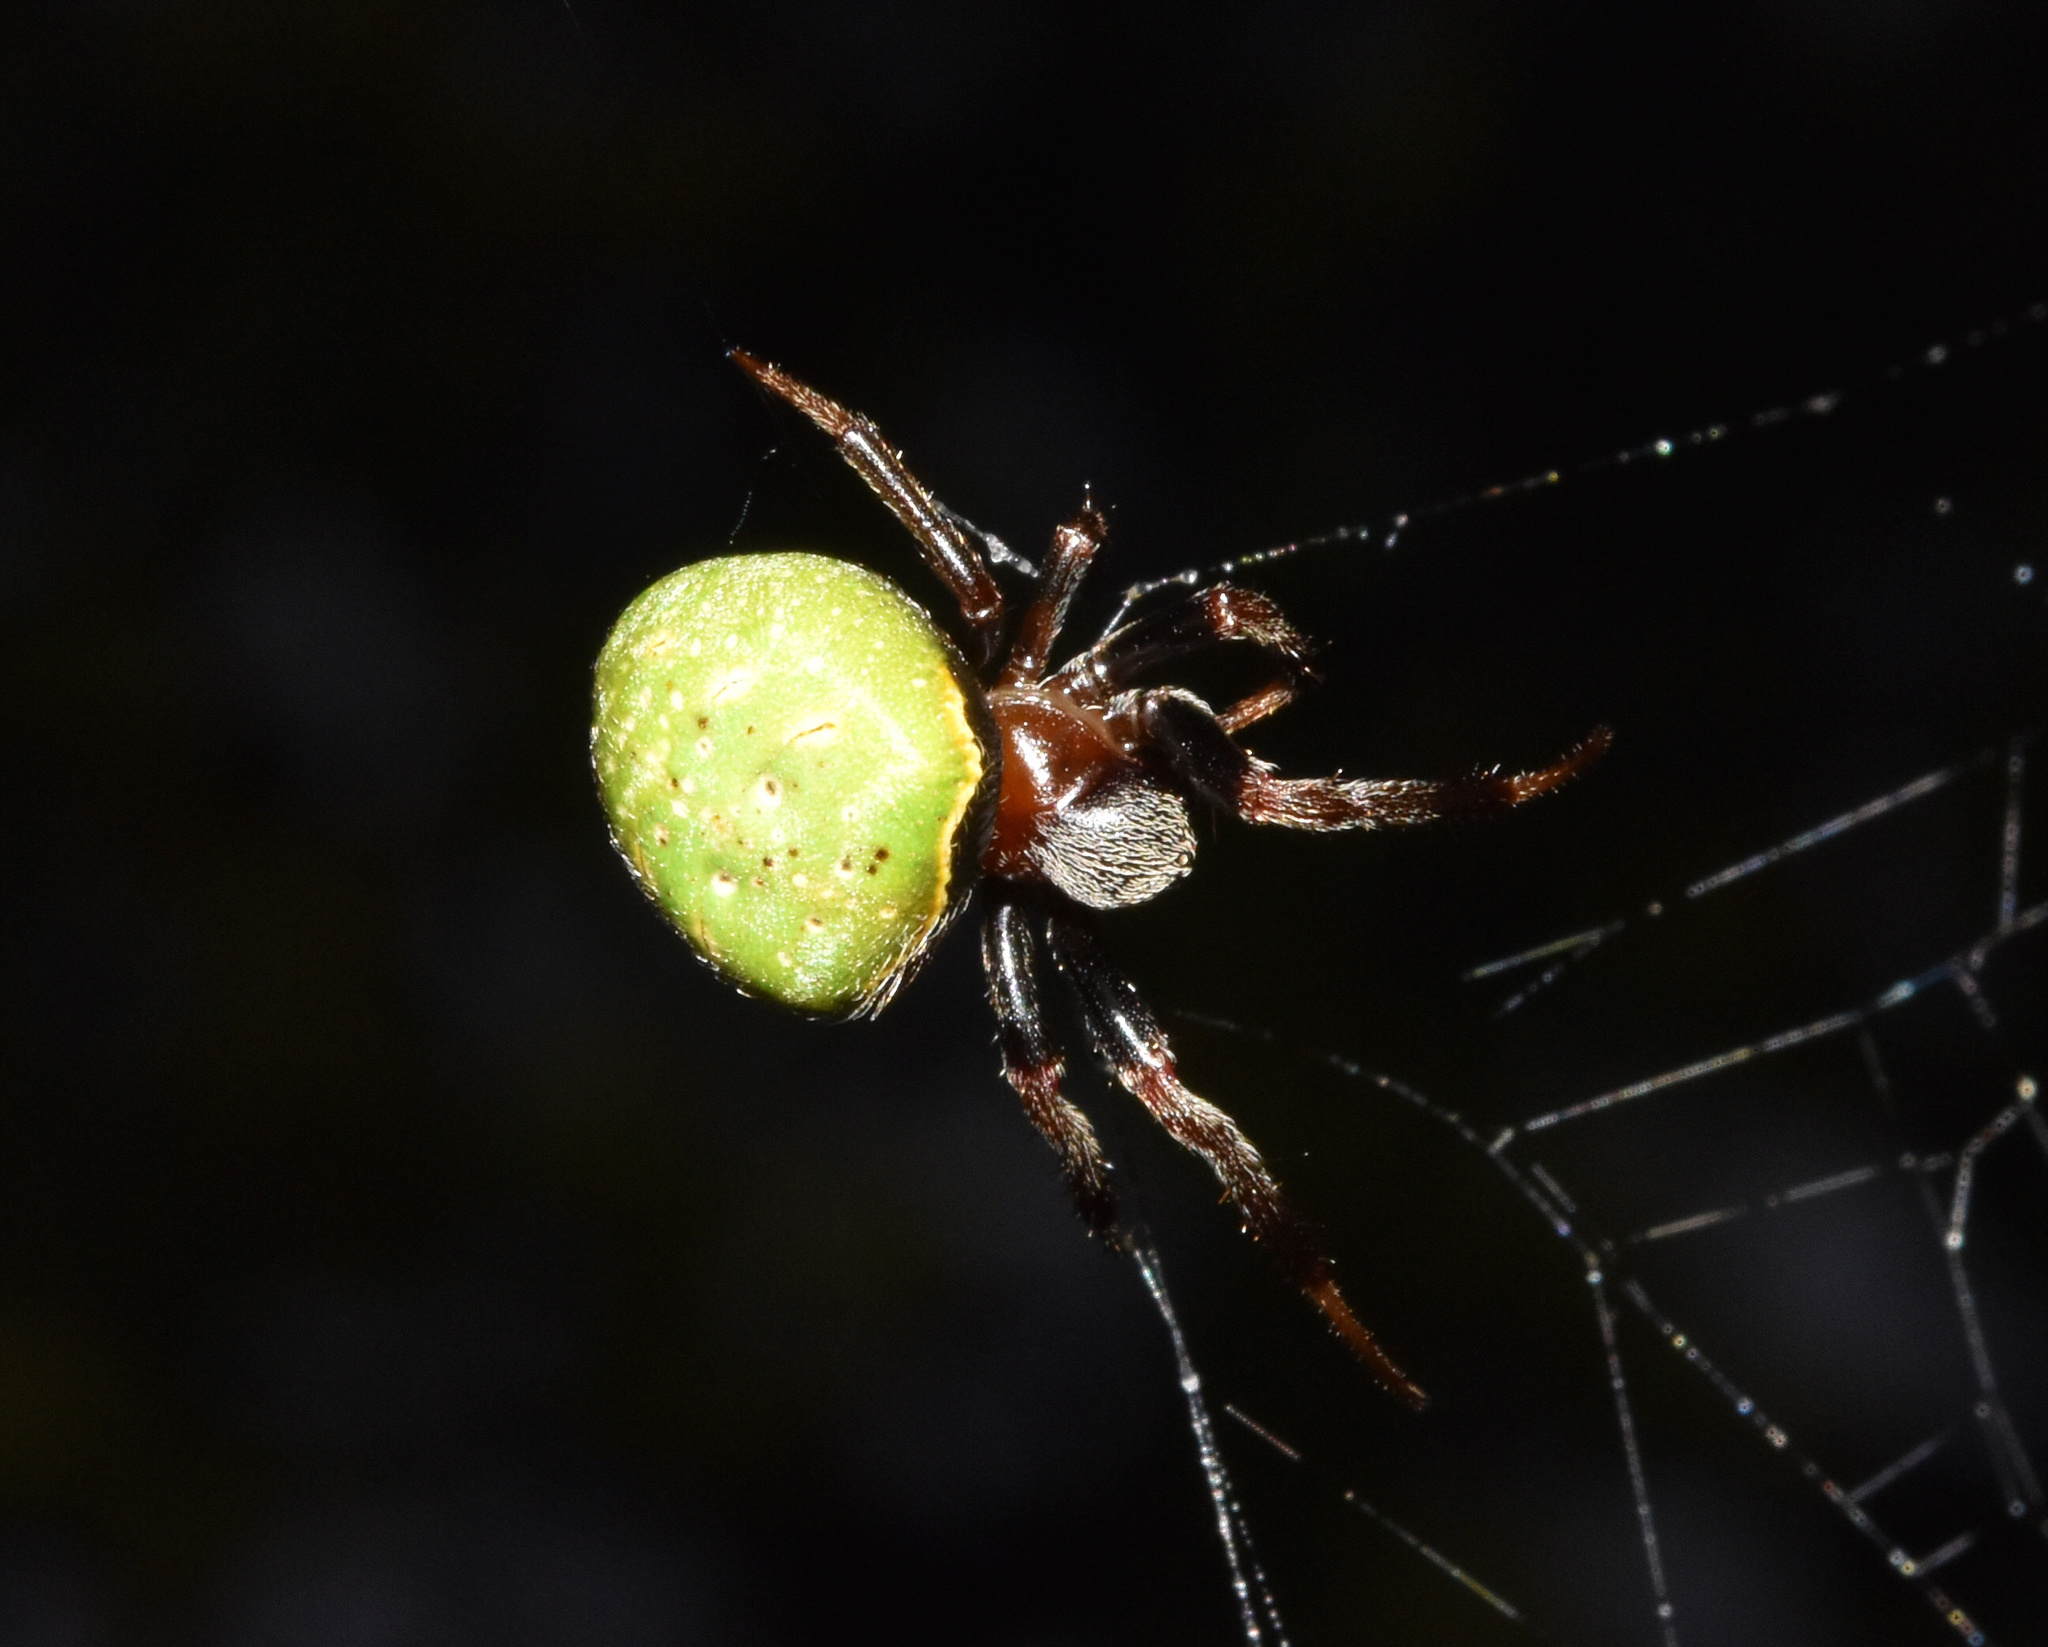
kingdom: Animalia
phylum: Arthropoda
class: Arachnida
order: Araneae
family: Araneidae
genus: Araneus
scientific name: Araneus apricus
